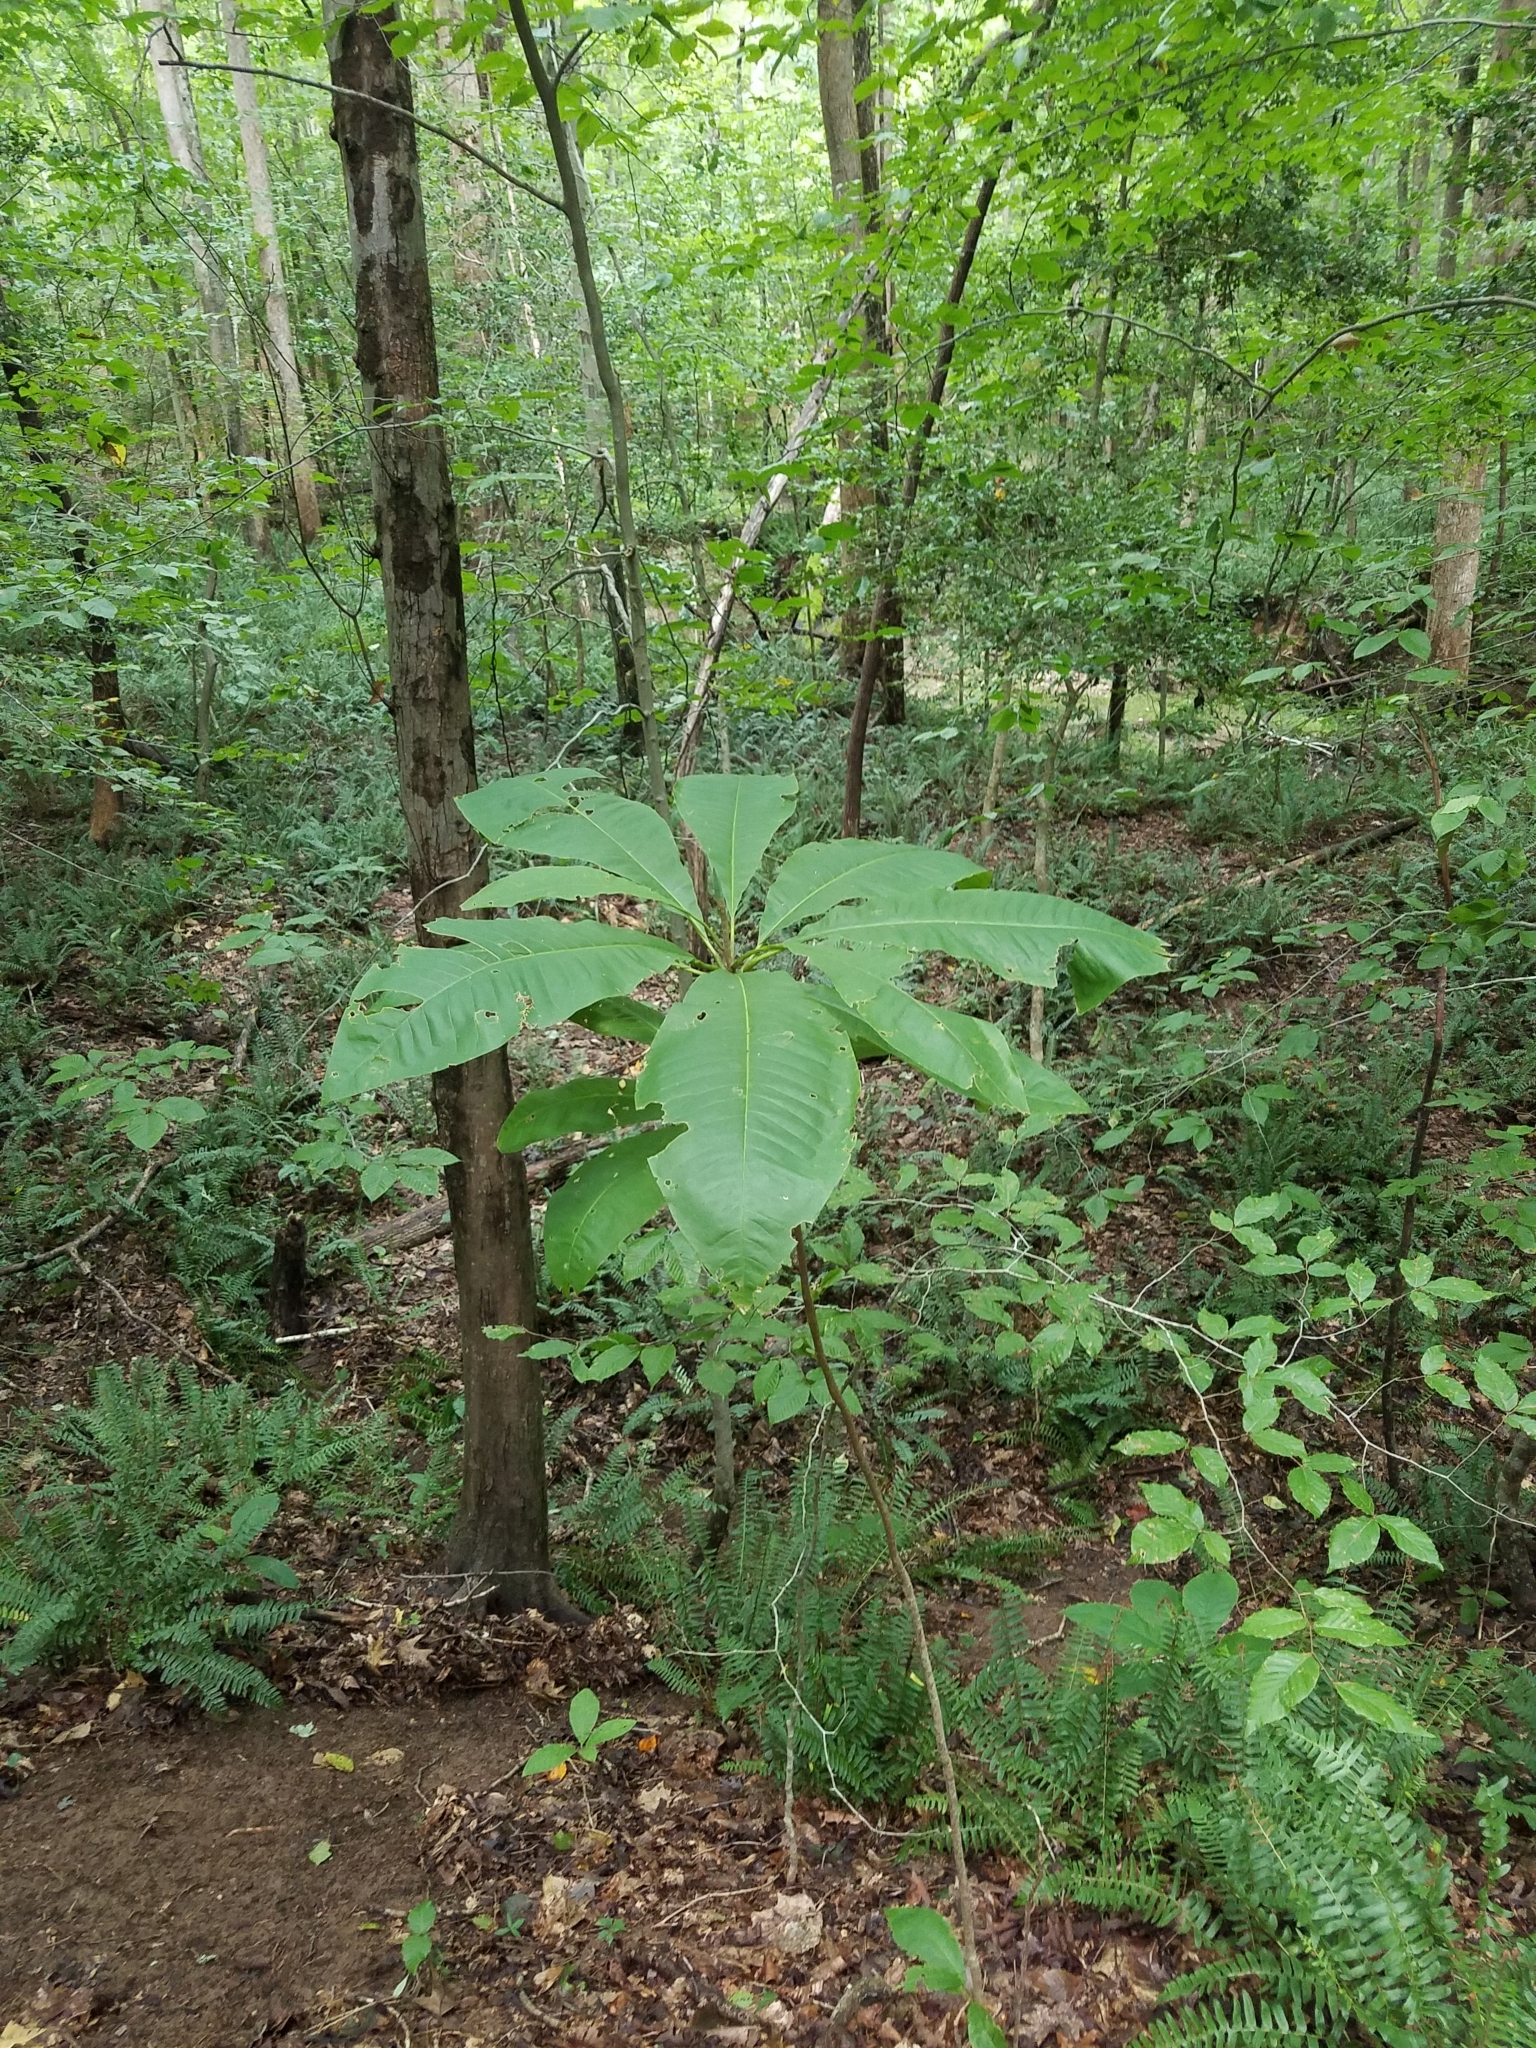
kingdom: Plantae
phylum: Tracheophyta
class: Magnoliopsida
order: Magnoliales
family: Magnoliaceae
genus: Magnolia
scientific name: Magnolia tripetala
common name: Umbrella magnolia
